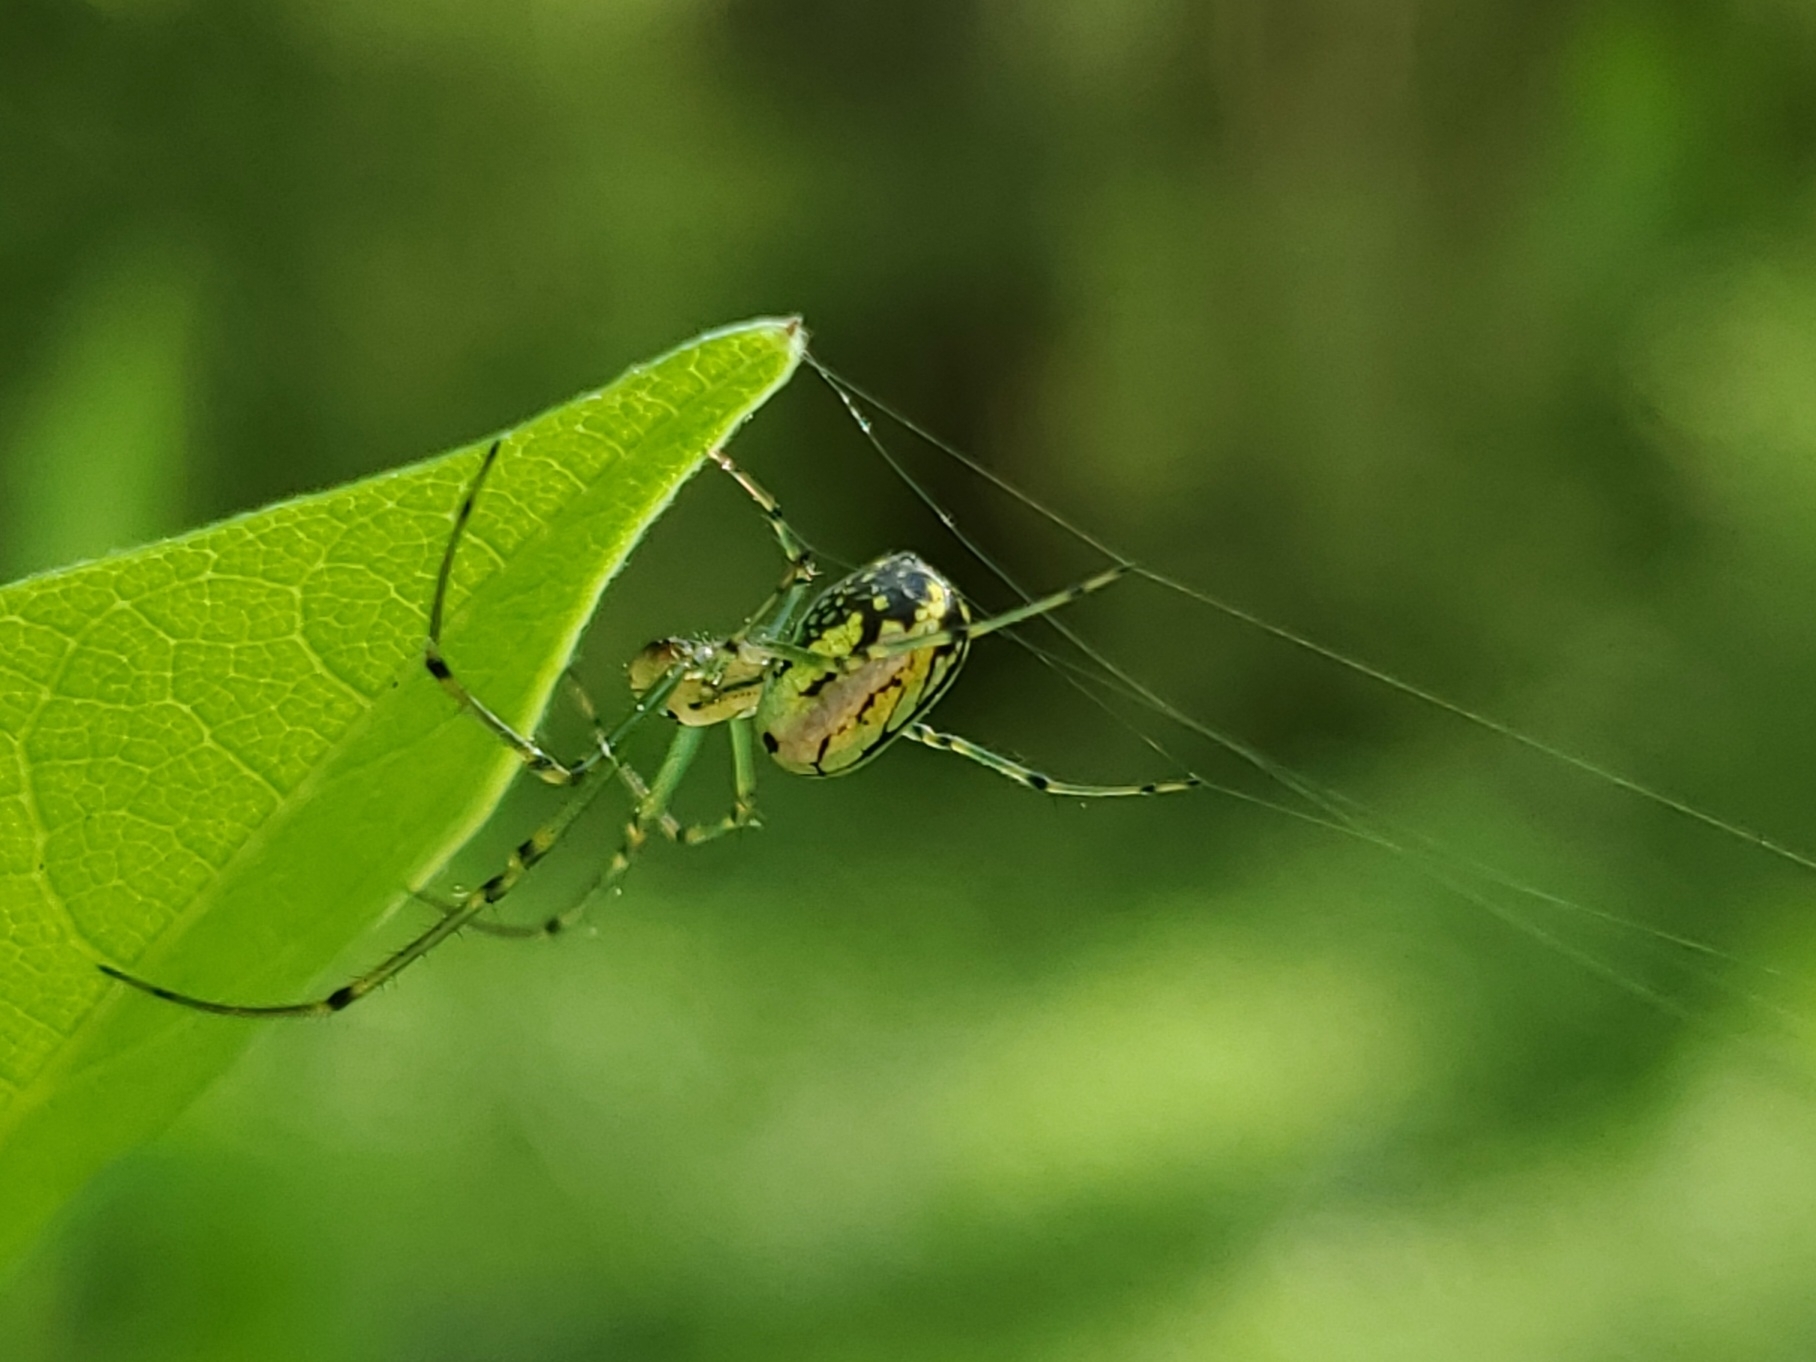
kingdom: Animalia
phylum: Arthropoda
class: Arachnida
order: Araneae
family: Tetragnathidae
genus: Leucauge
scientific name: Leucauge venusta
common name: Longjawed orb weavers
